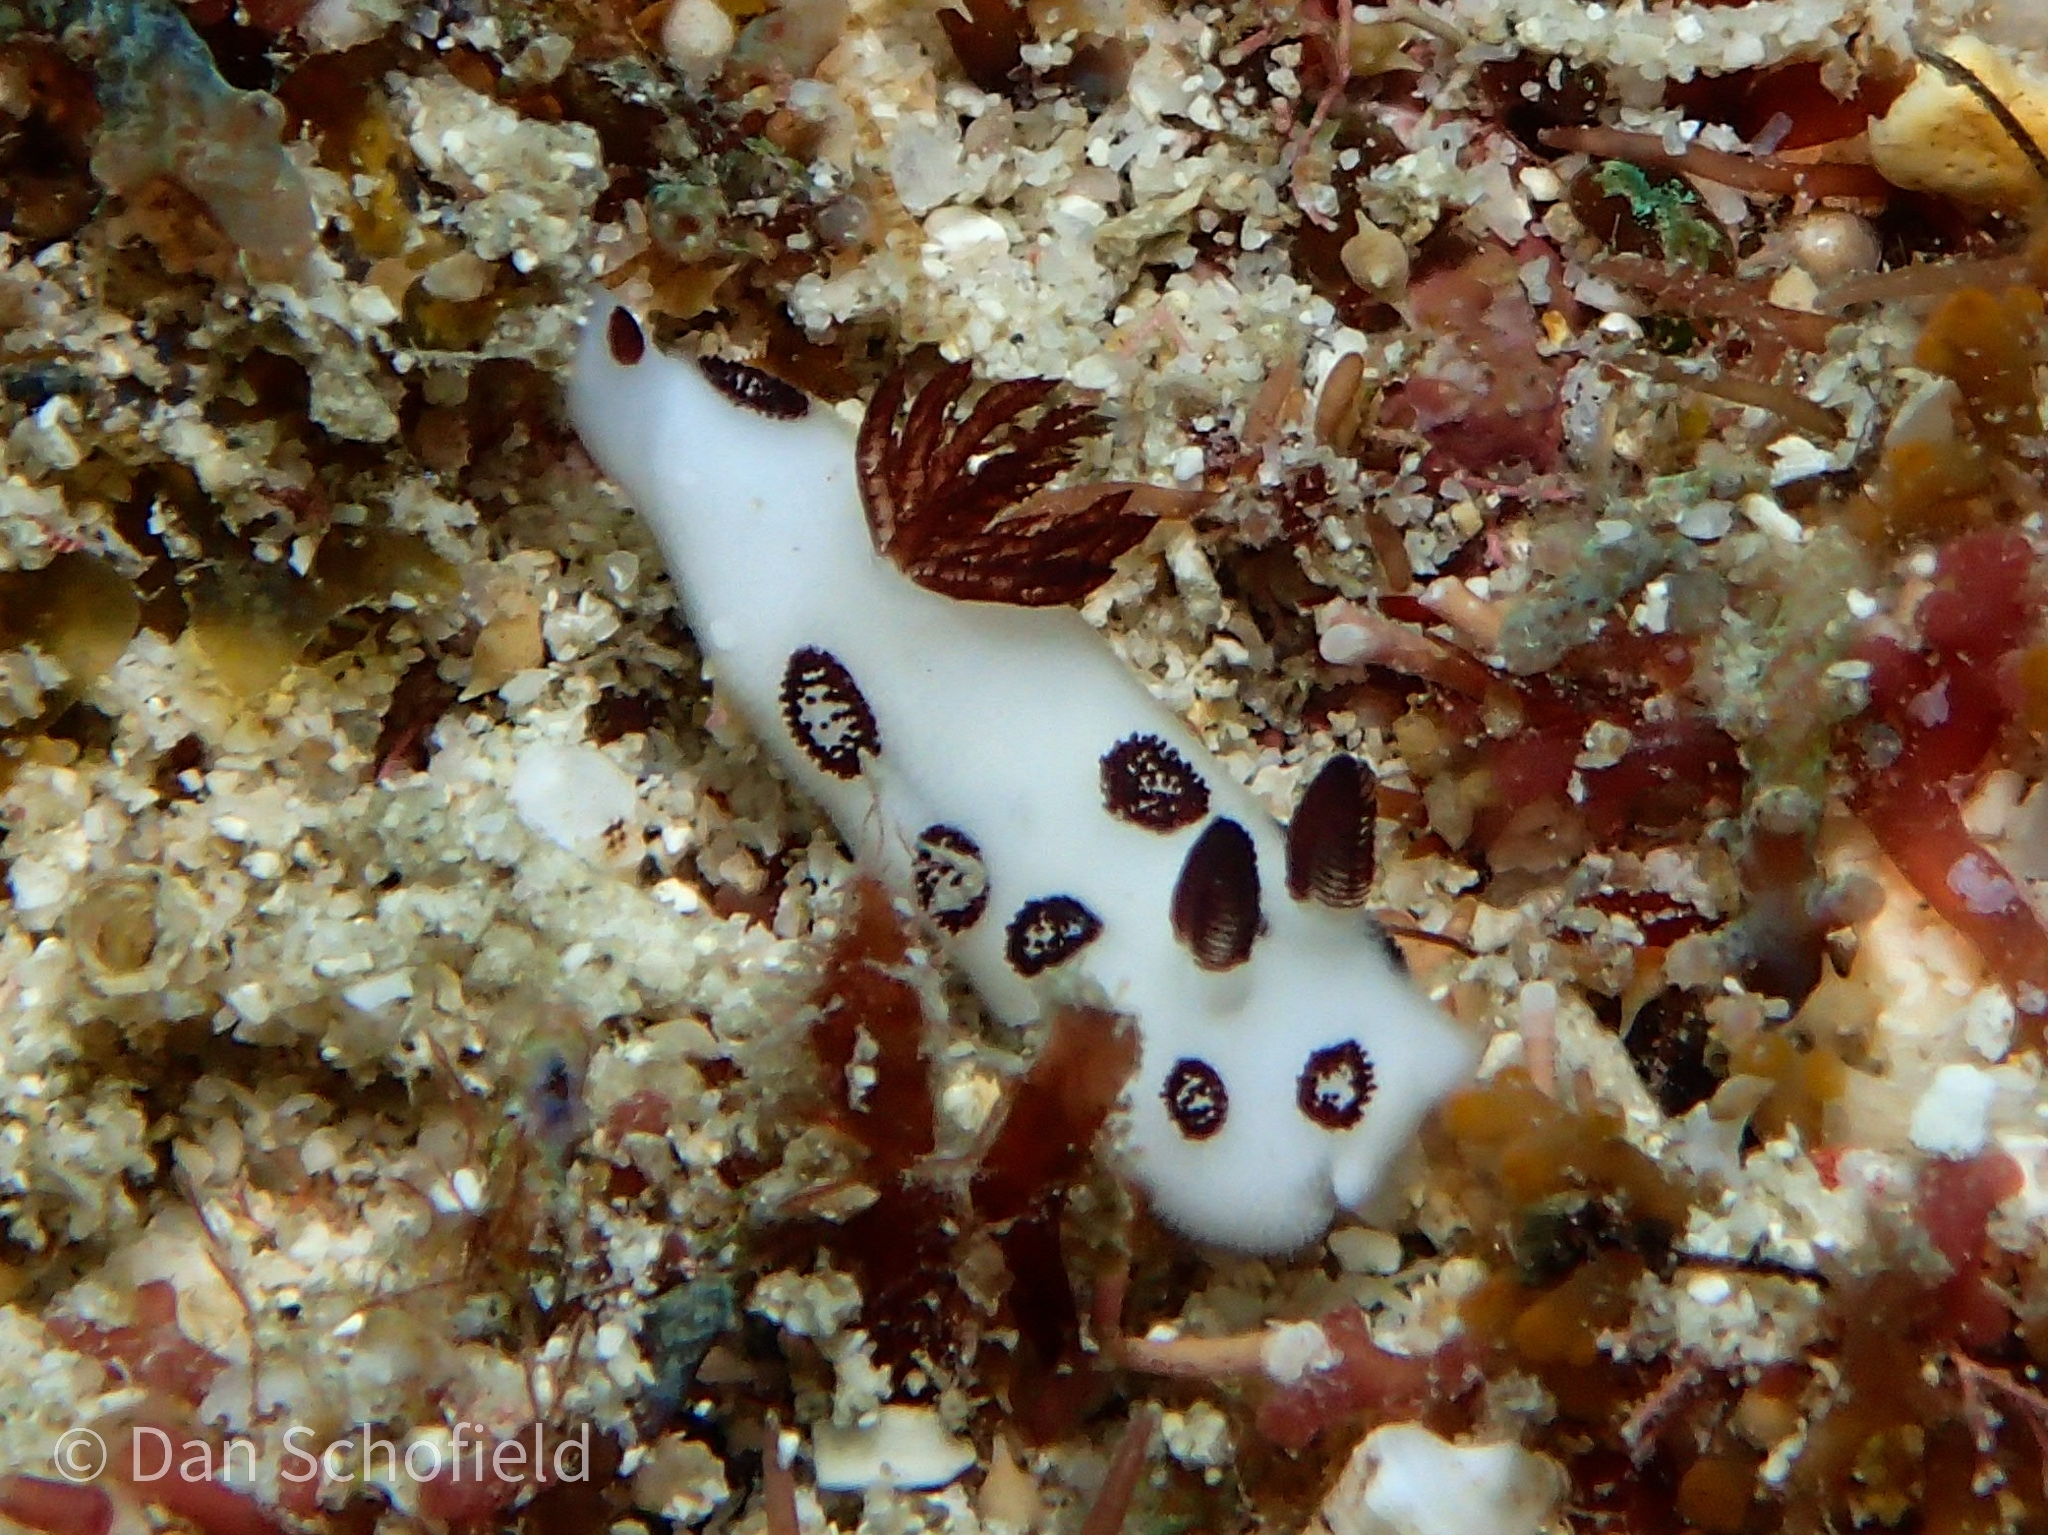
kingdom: Animalia
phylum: Mollusca
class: Gastropoda
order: Nudibranchia
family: Discodorididae
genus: Jorunna
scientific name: Jorunna funebris
